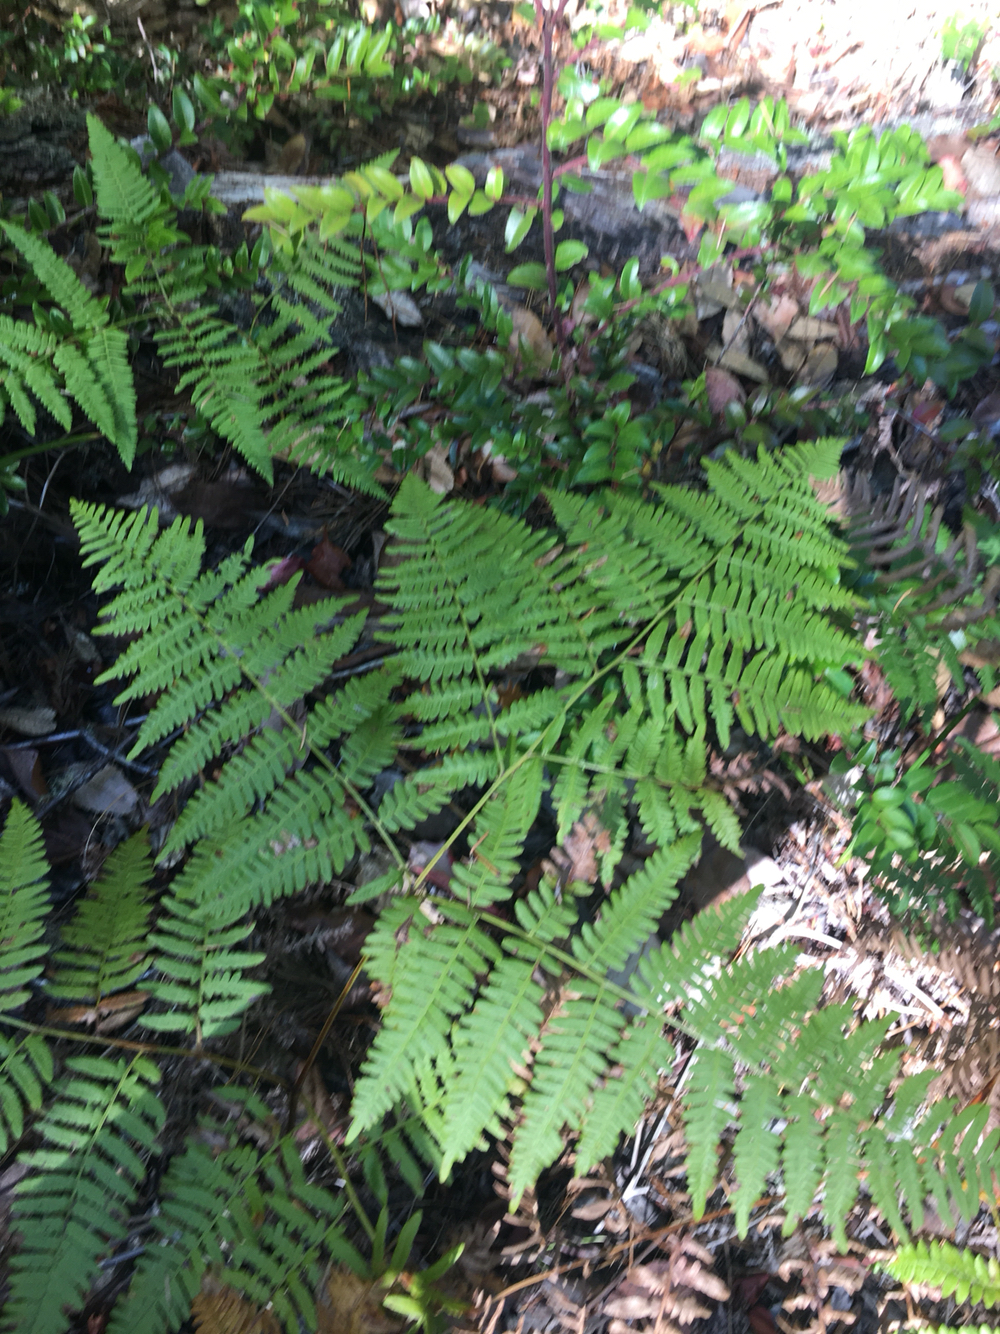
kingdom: Plantae
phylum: Tracheophyta
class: Polypodiopsida
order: Polypodiales
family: Dennstaedtiaceae
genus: Pteridium
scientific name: Pteridium aquilinum
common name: Bracken
